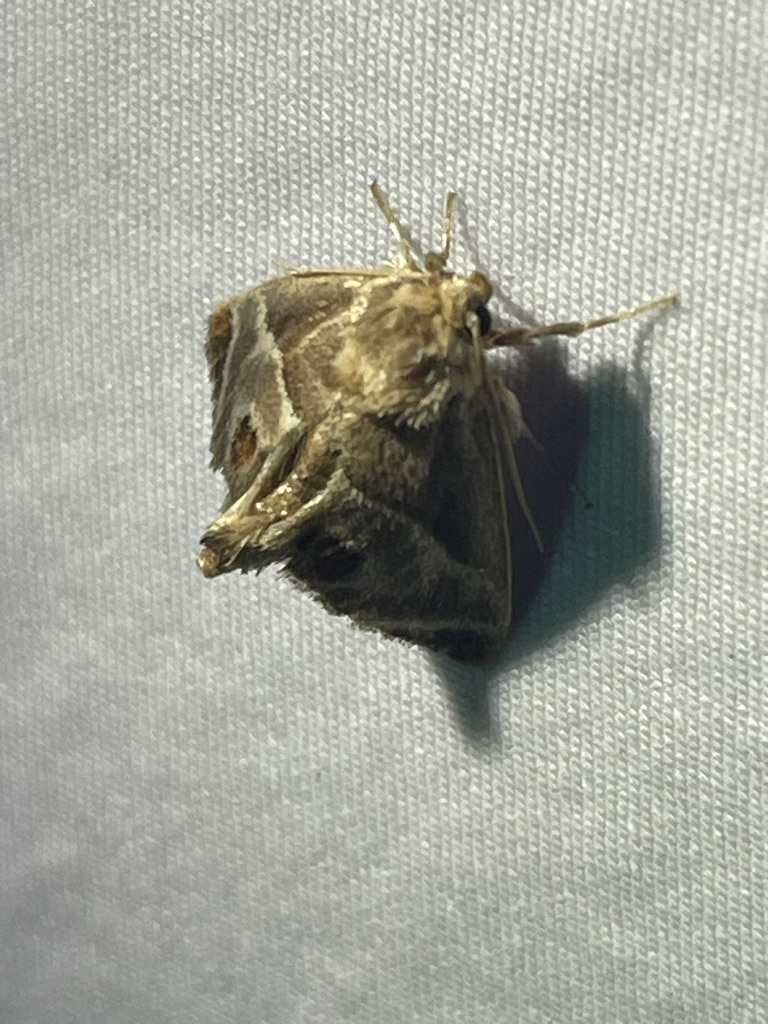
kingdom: Animalia
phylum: Arthropoda
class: Insecta
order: Lepidoptera
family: Limacodidae
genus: Apoda
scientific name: Apoda biguttata
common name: Shagreened slug moth
